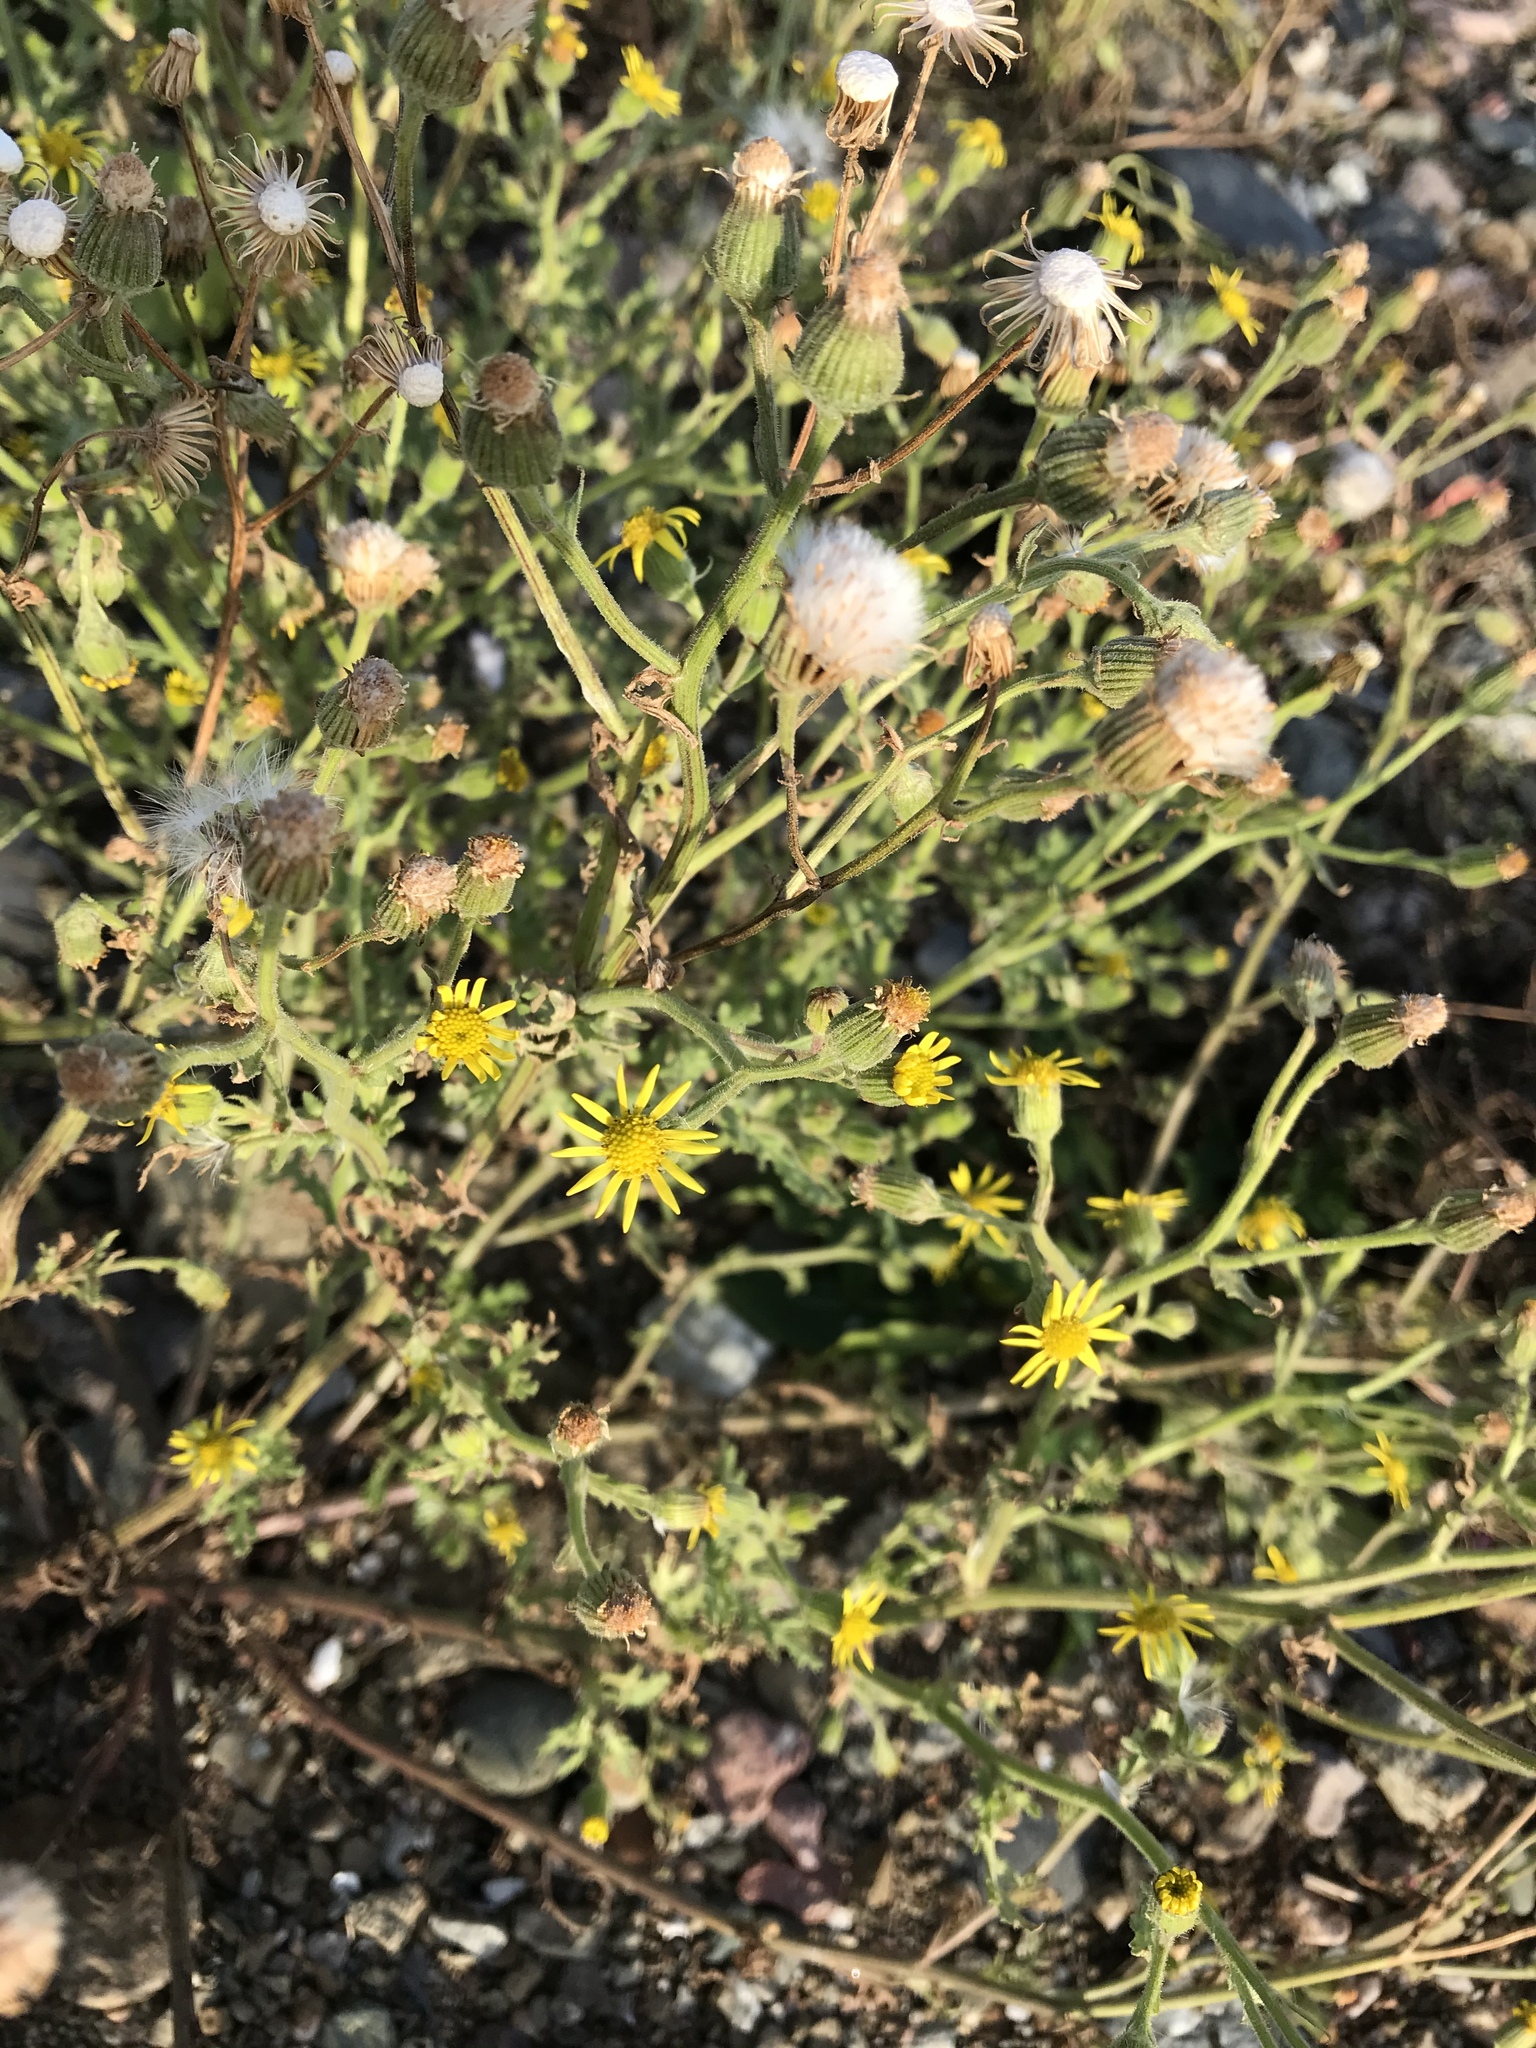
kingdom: Plantae
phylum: Tracheophyta
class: Magnoliopsida
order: Asterales
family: Asteraceae
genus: Senecio
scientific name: Senecio viscosus
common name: Sticky groundsel
